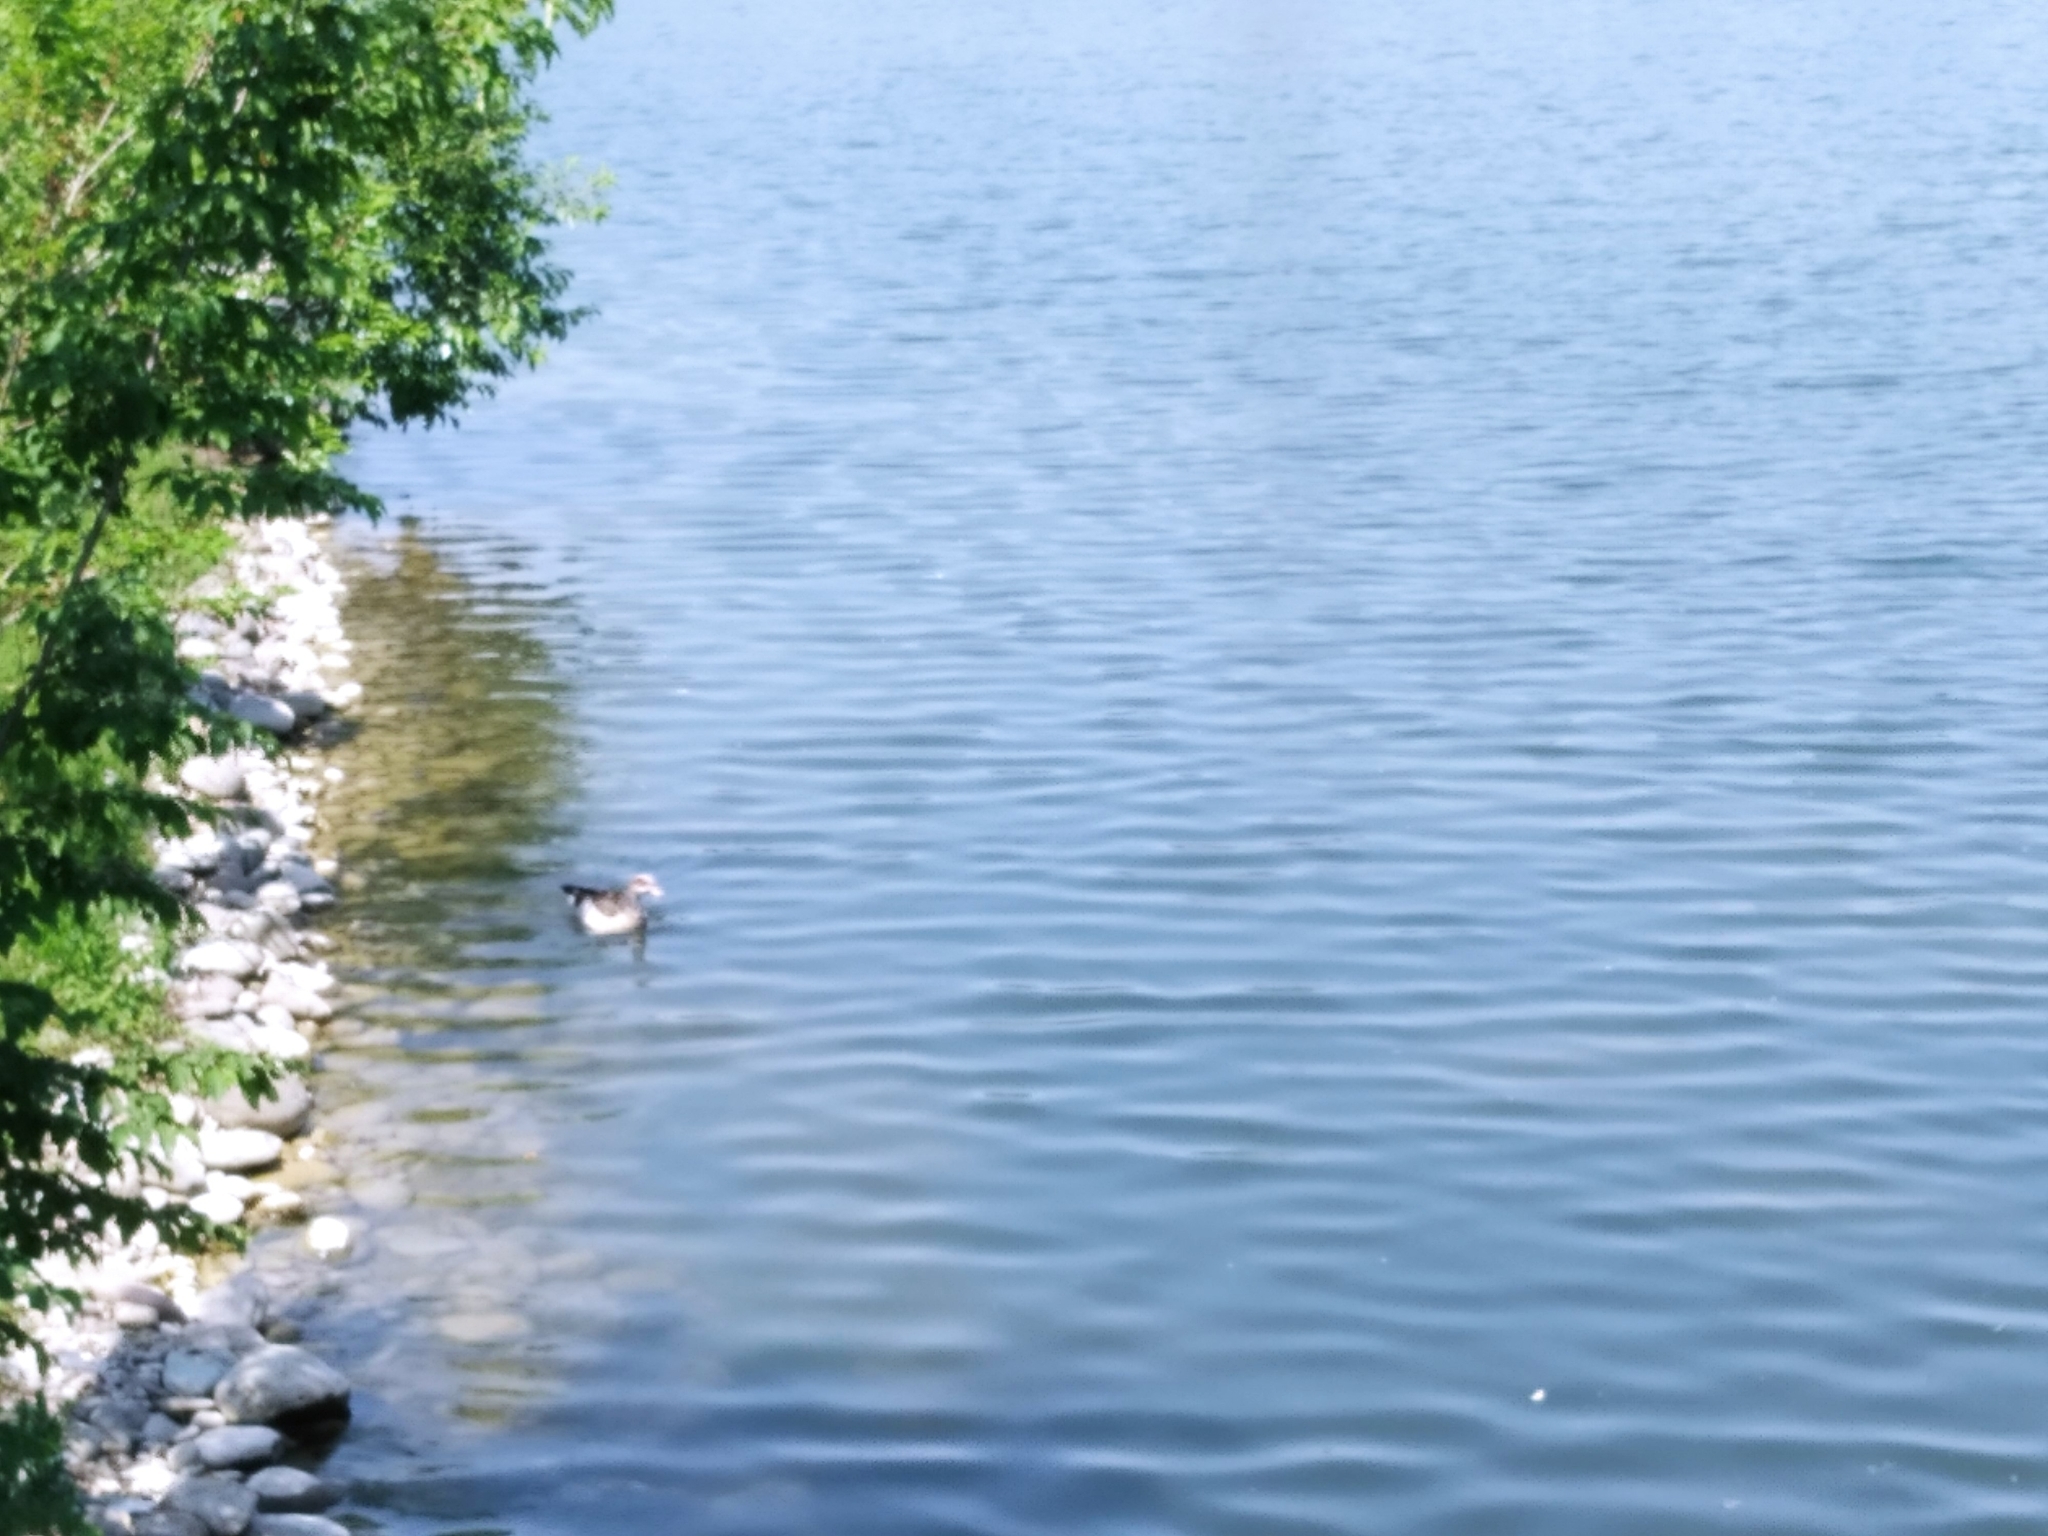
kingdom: Animalia
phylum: Chordata
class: Aves
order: Anseriformes
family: Anatidae
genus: Alopochen
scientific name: Alopochen aegyptiaca
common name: Egyptian goose
